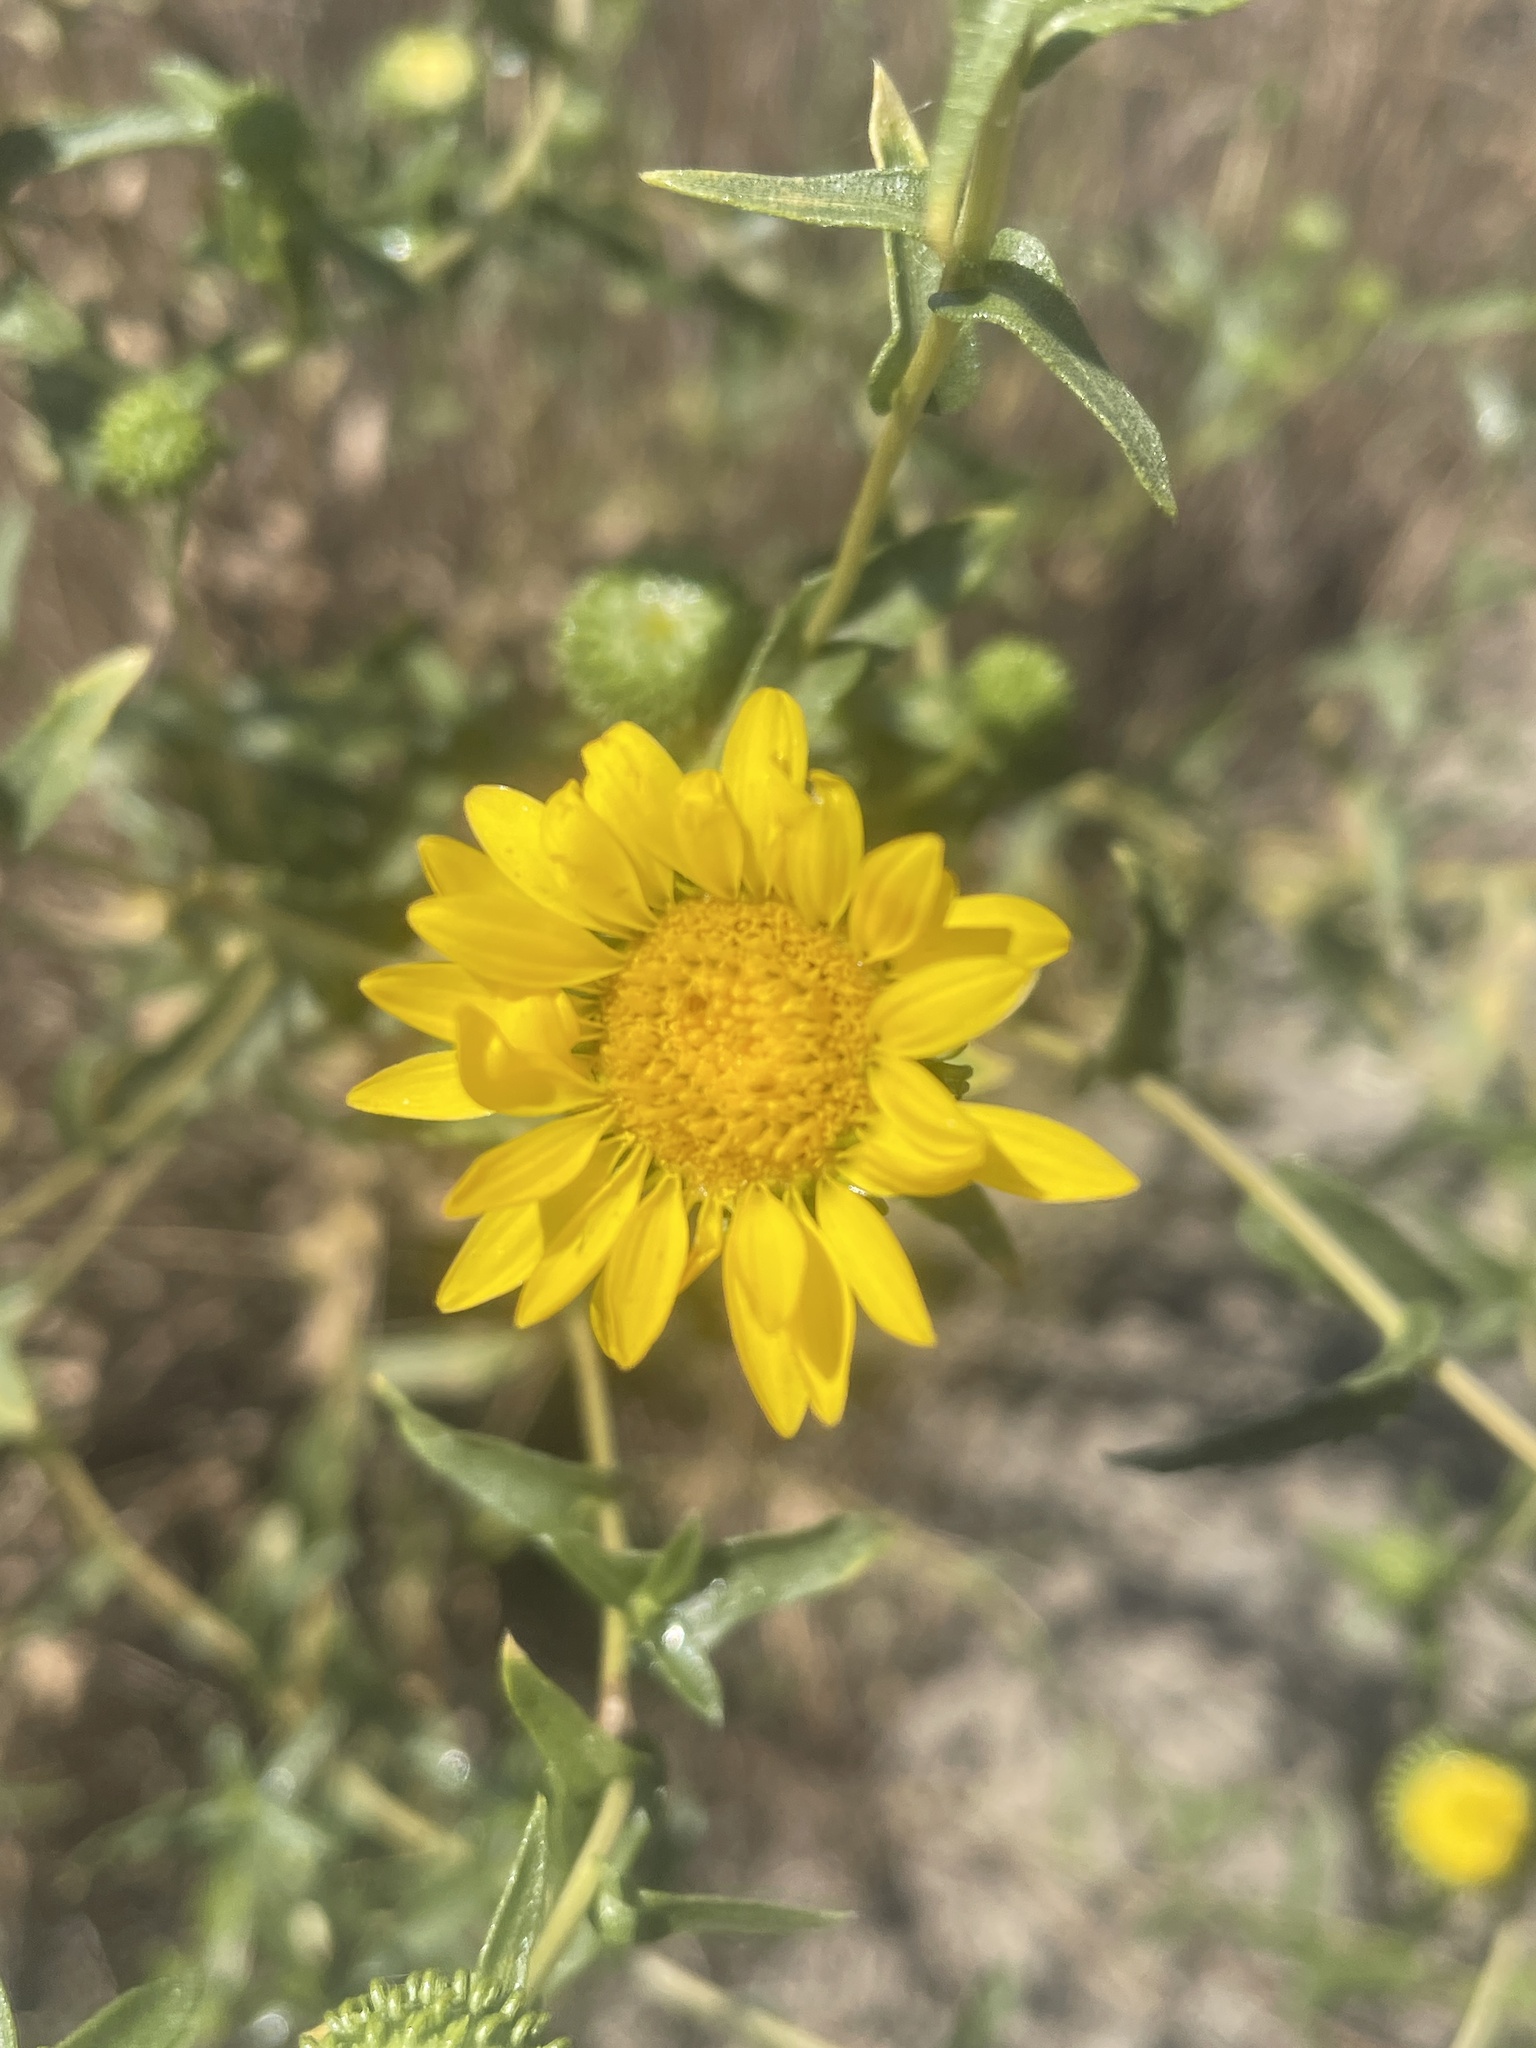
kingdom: Plantae
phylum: Tracheophyta
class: Magnoliopsida
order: Asterales
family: Asteraceae
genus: Grindelia
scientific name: Grindelia hirsutula
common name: Hairy gumweed
